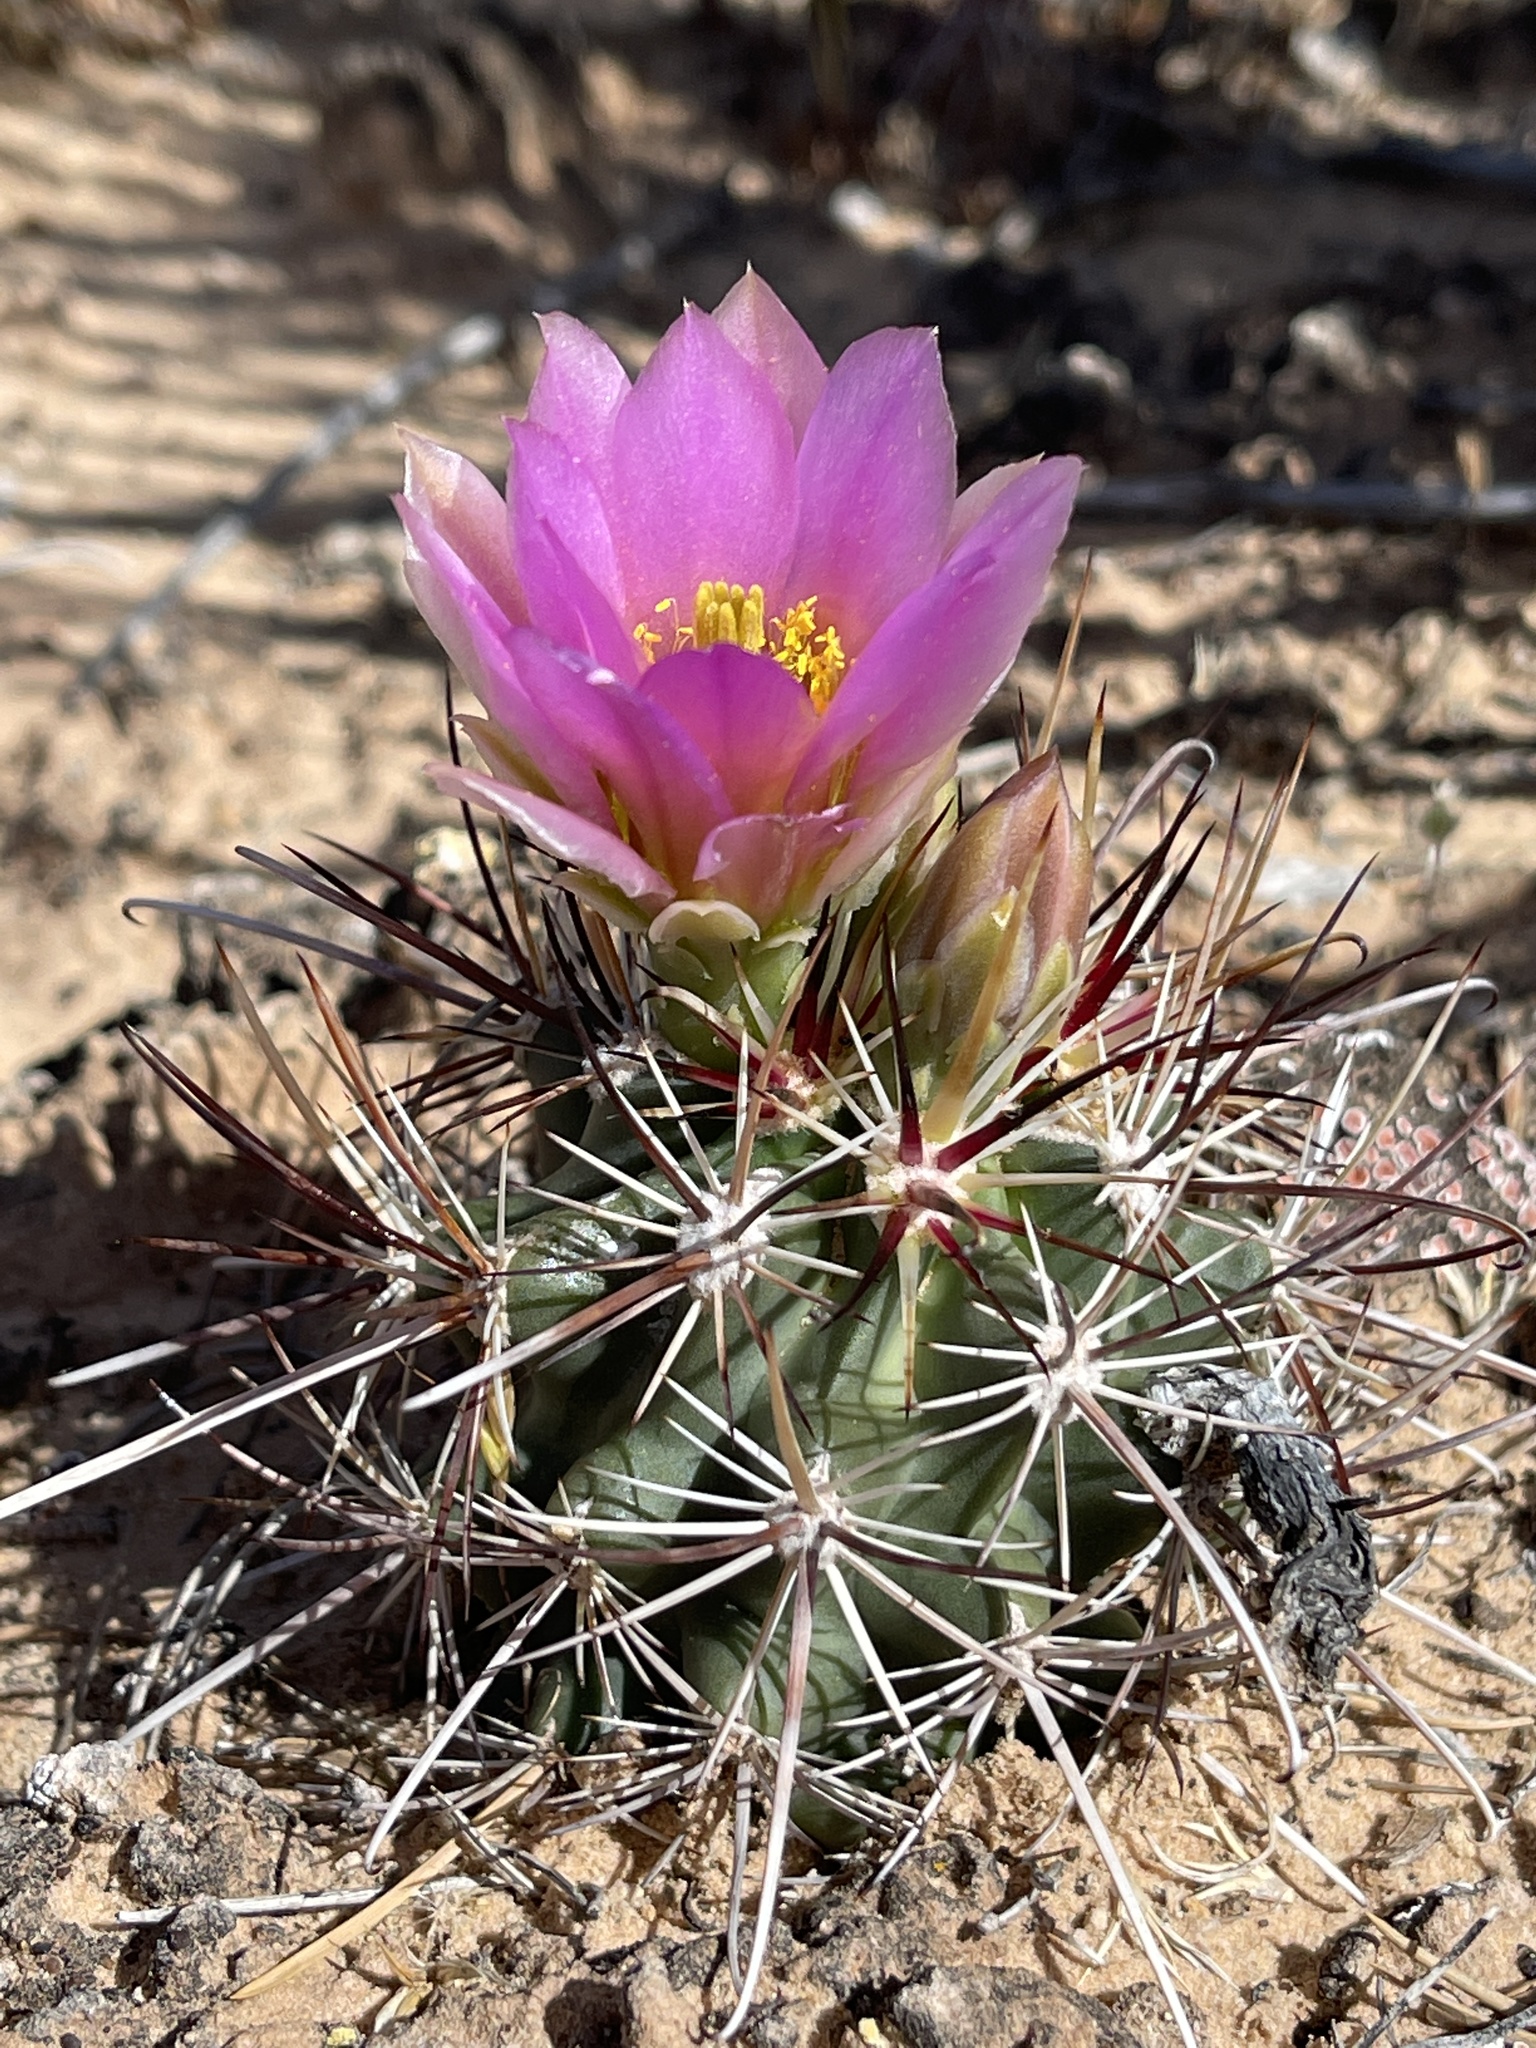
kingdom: Plantae
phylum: Tracheophyta
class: Magnoliopsida
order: Caryophyllales
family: Cactaceae
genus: Sclerocactus
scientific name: Sclerocactus parviflorus
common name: Small-flower fishhook cactus
